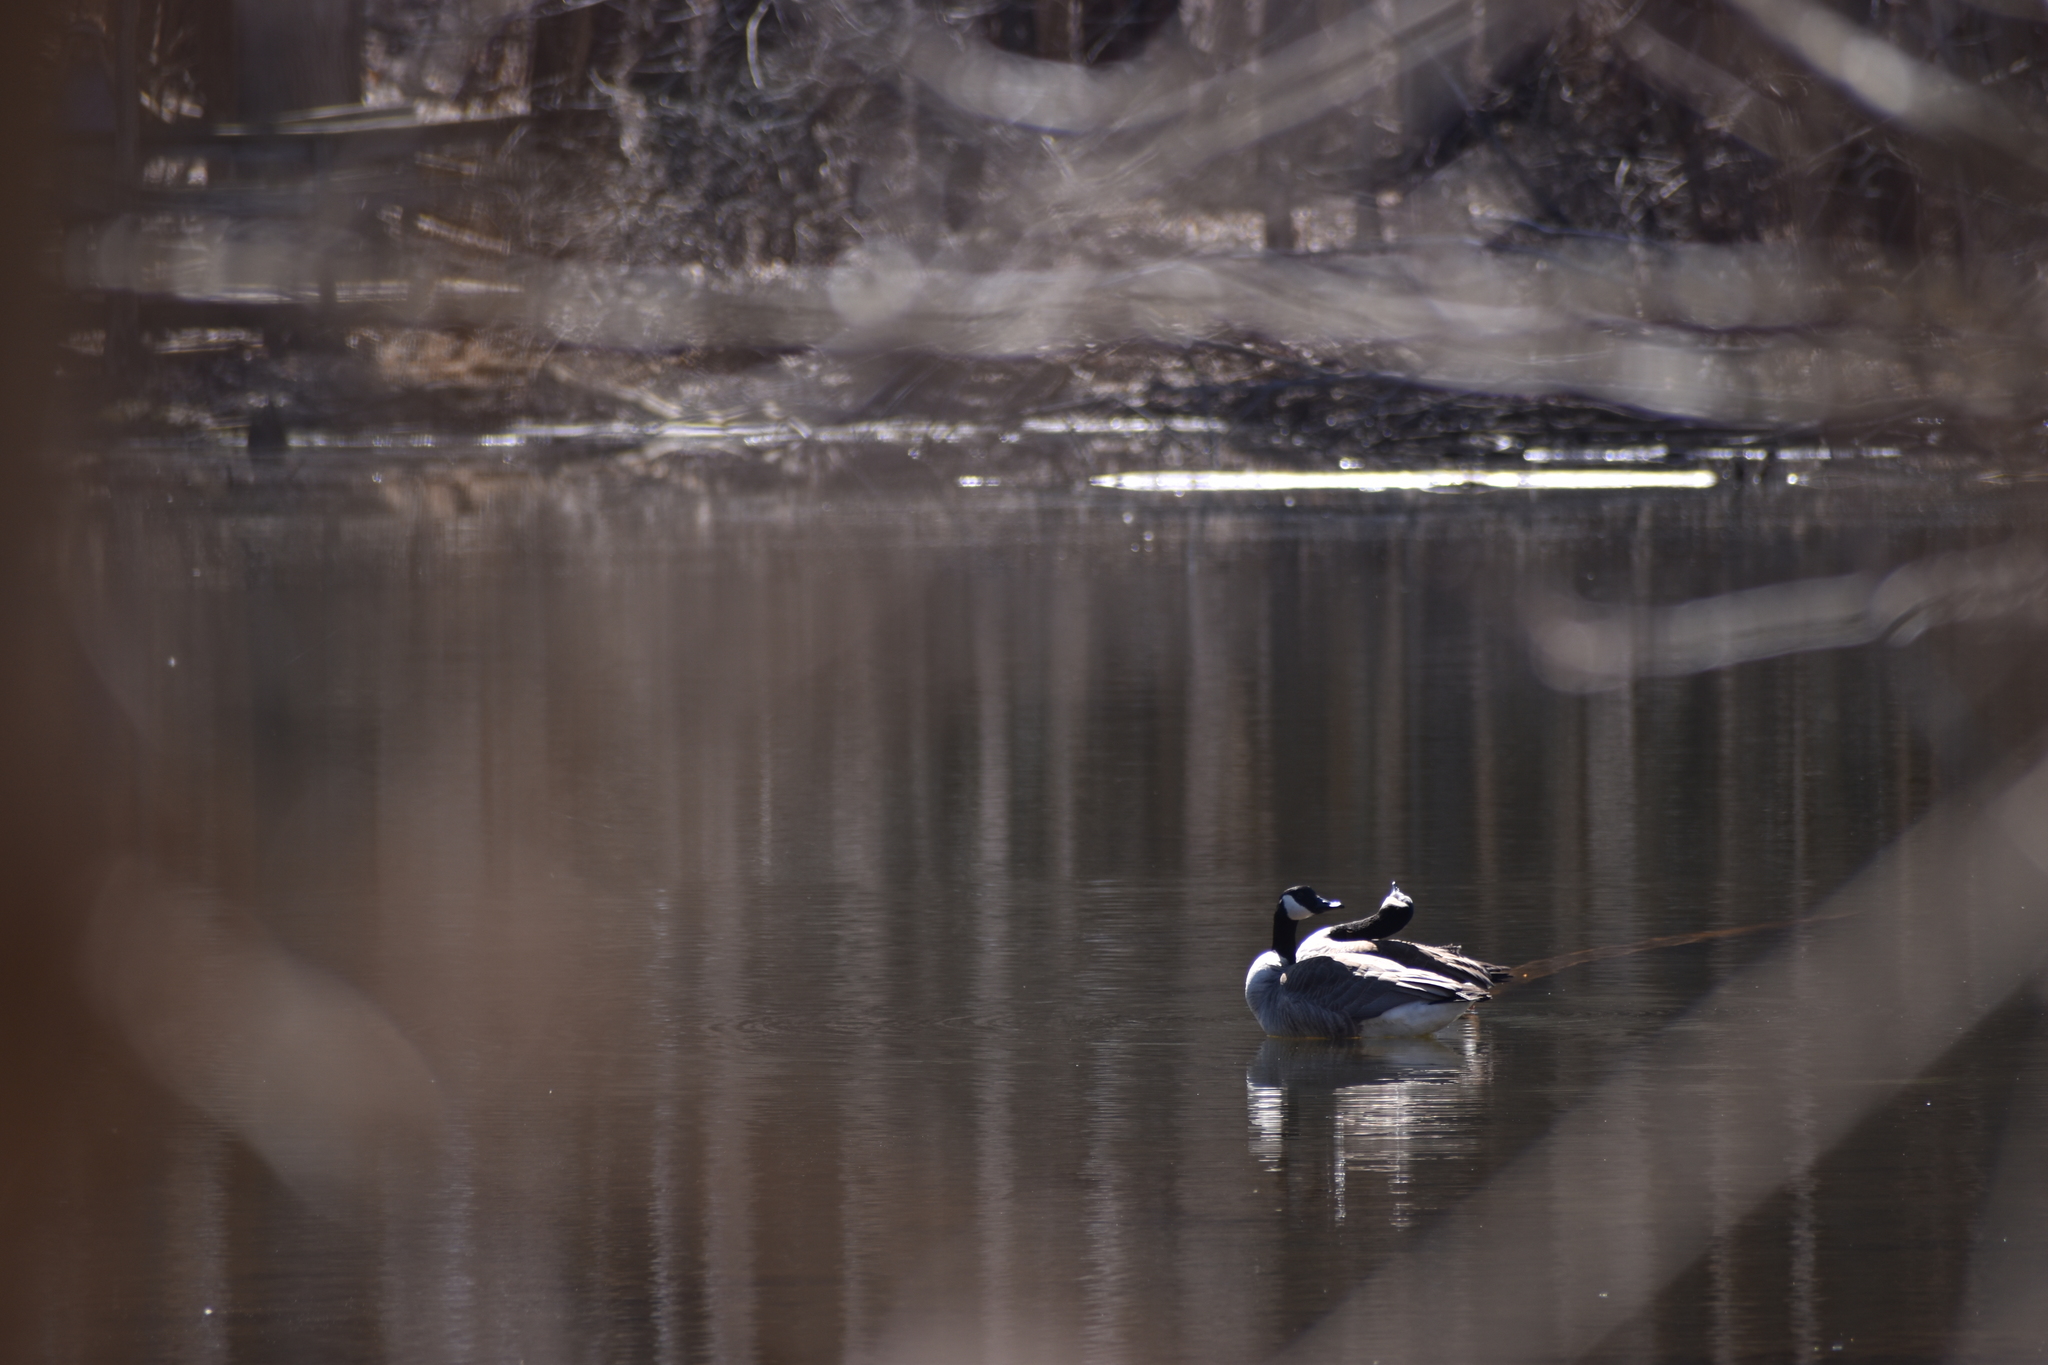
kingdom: Animalia
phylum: Chordata
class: Aves
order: Anseriformes
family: Anatidae
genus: Branta
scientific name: Branta canadensis
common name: Canada goose
